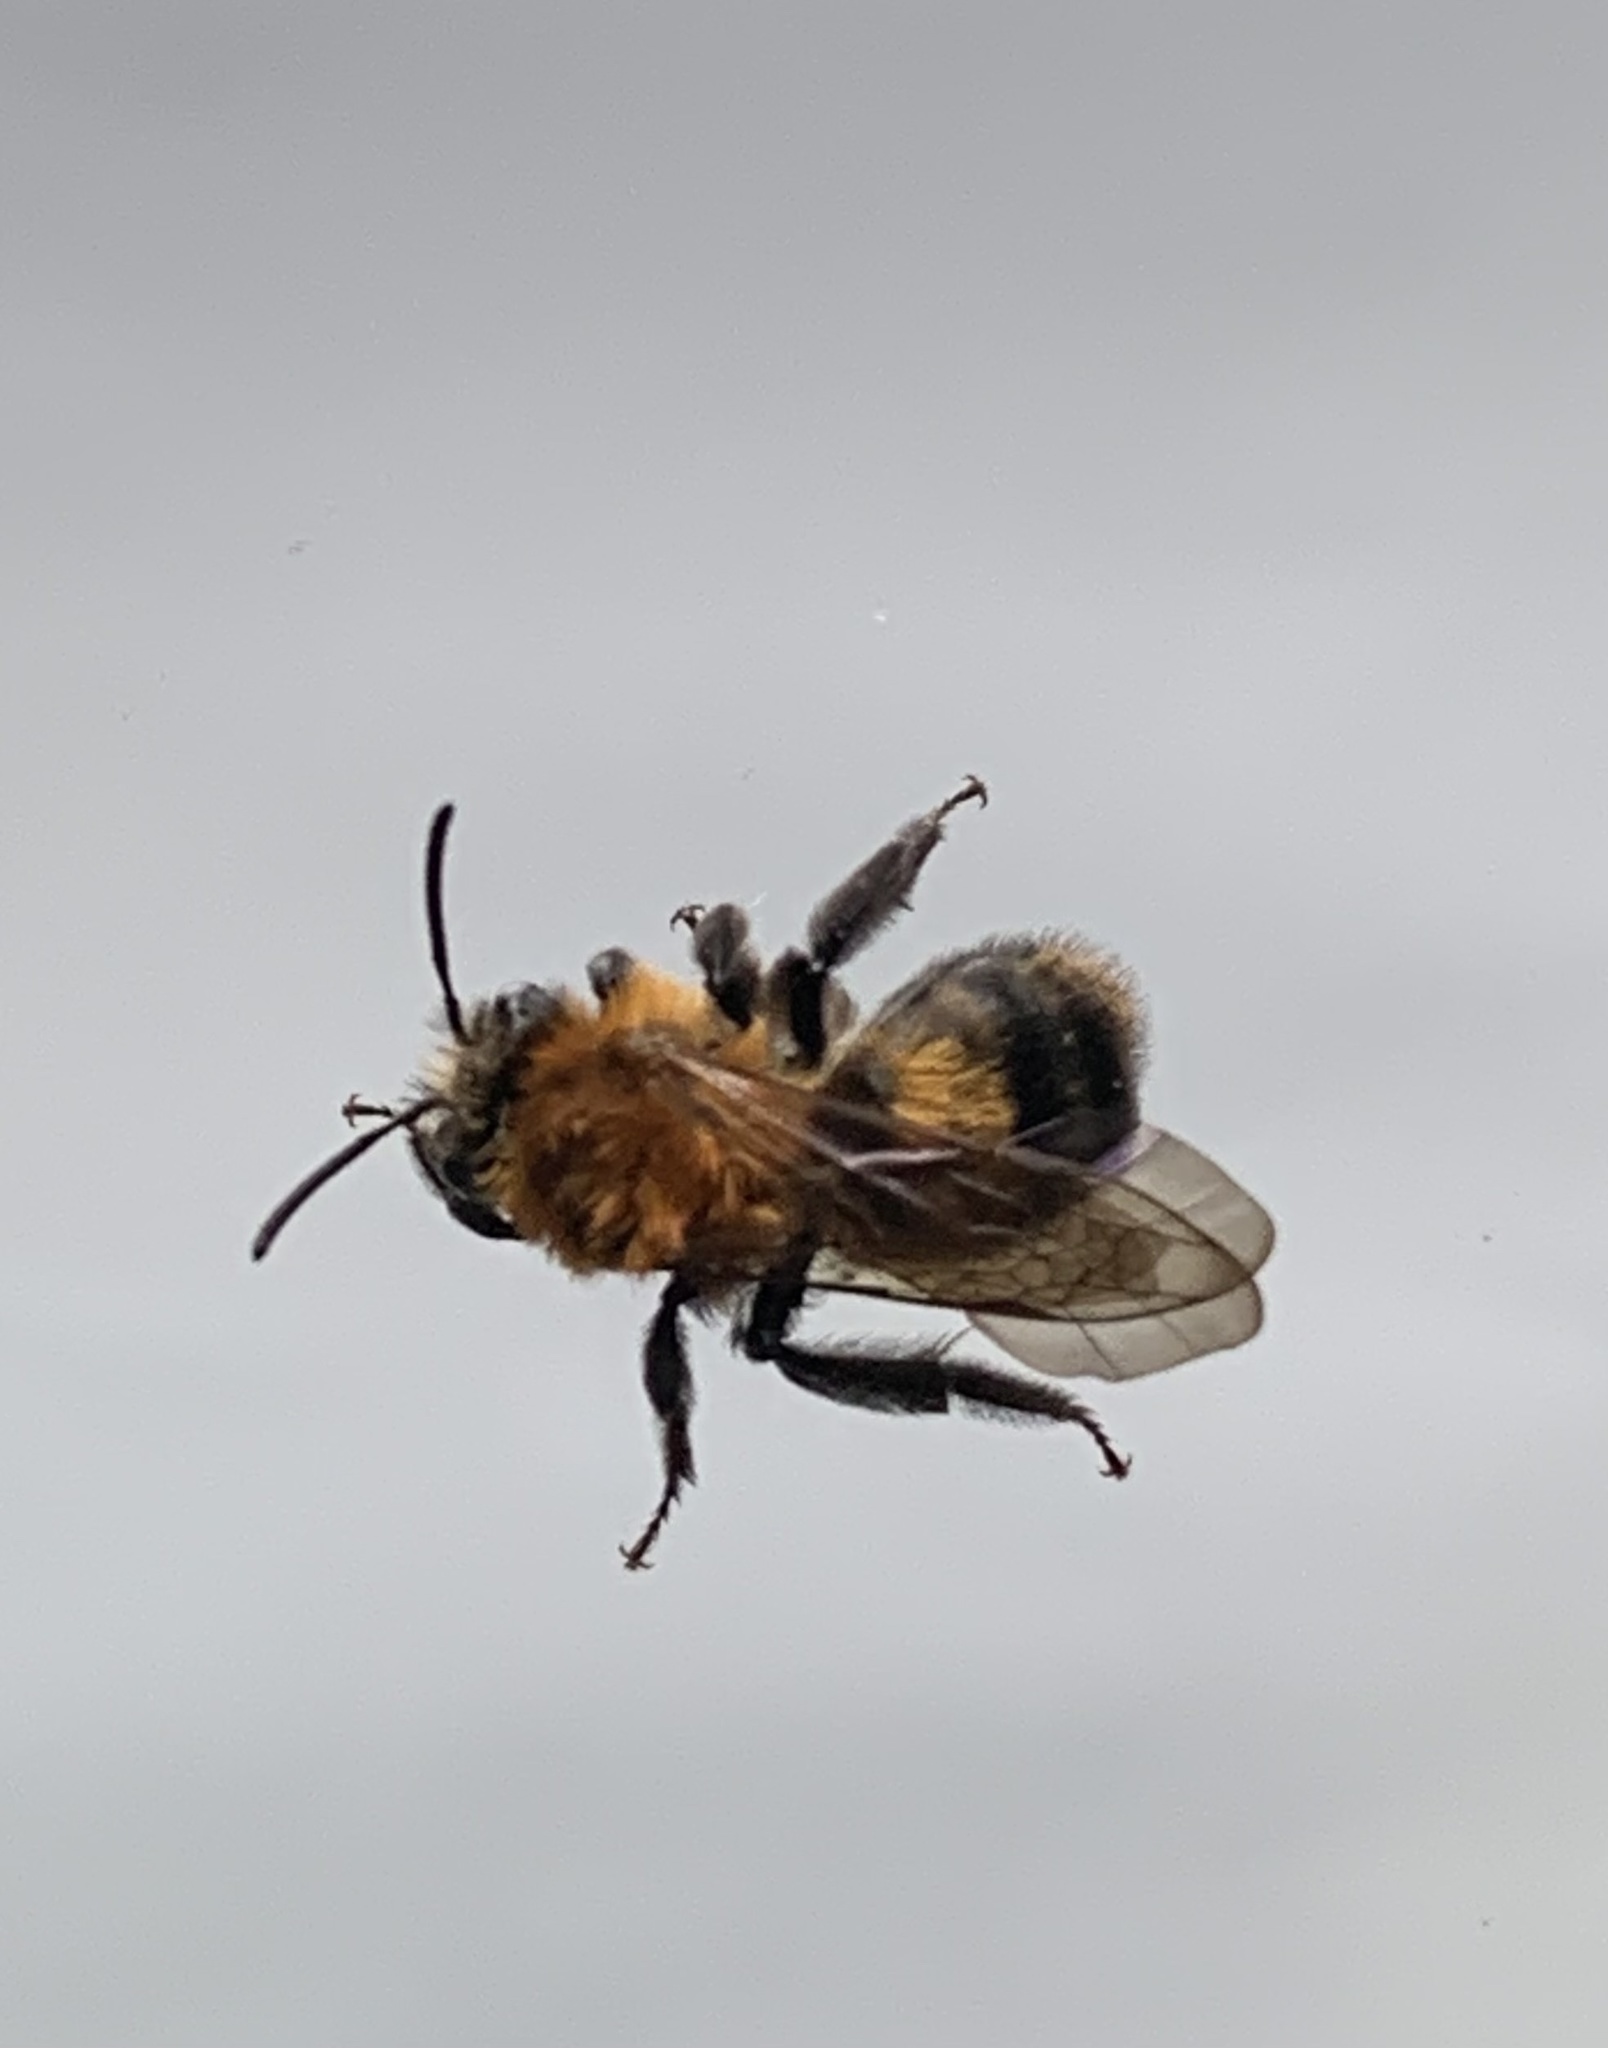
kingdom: Animalia
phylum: Arthropoda
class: Insecta
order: Hymenoptera
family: Andrenidae
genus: Andrena
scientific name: Andrena milwaukeensis
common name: Milwaukee mining bee
